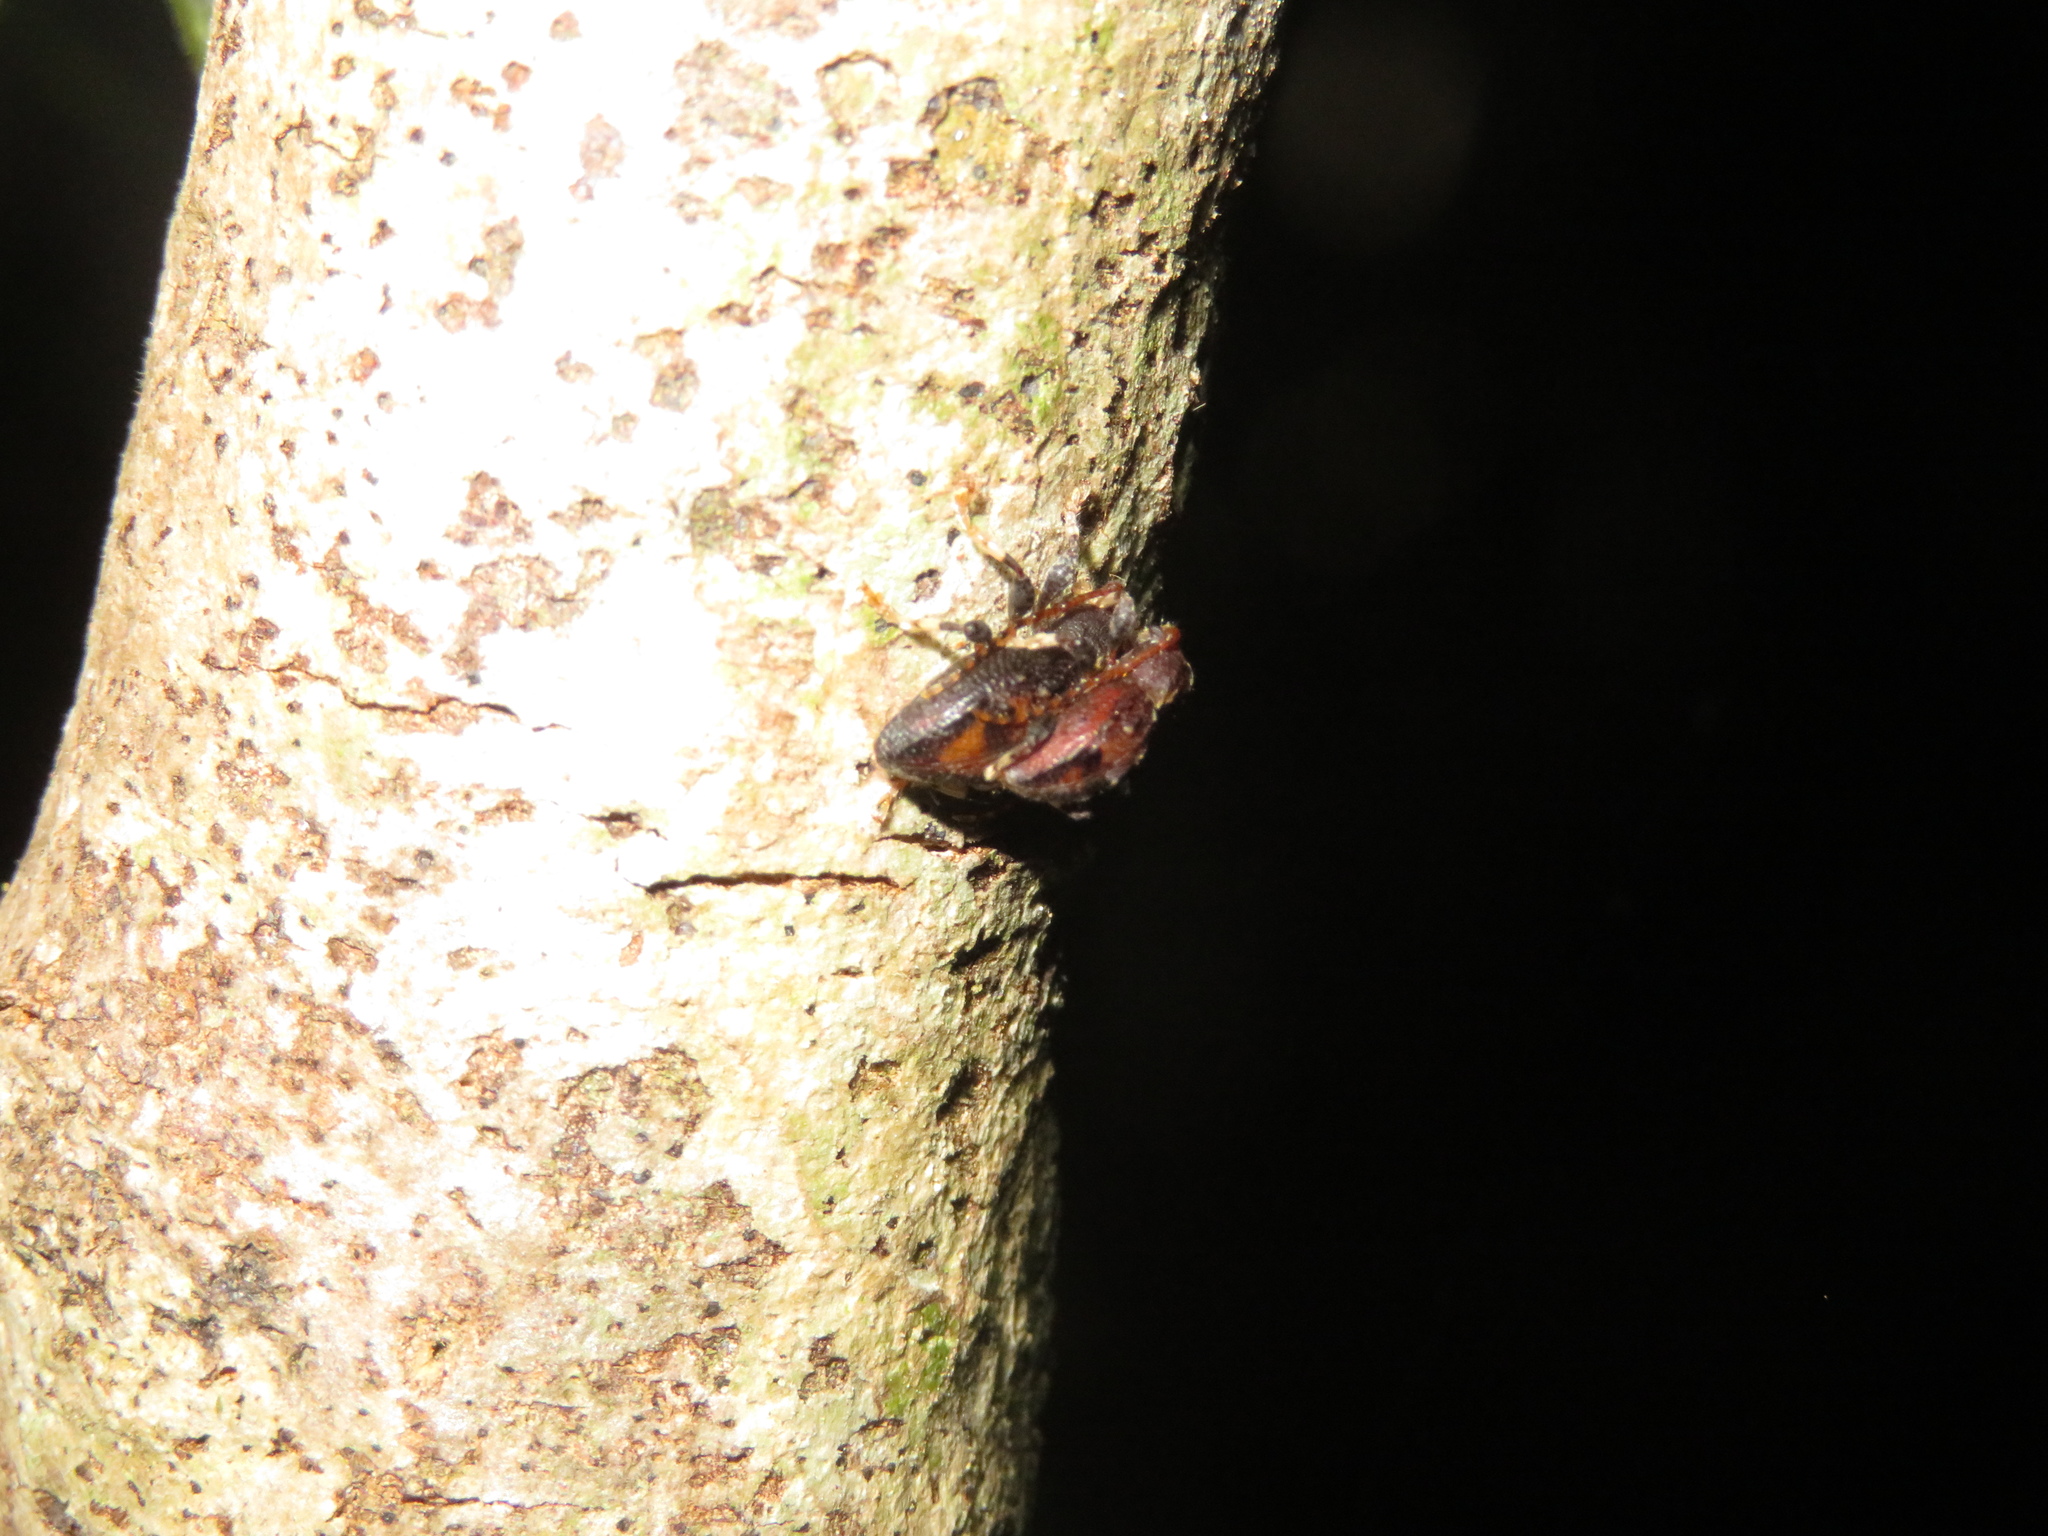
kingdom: Animalia
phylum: Arthropoda
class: Insecta
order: Coleoptera
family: Cerambycidae
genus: Nodulosoma
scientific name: Nodulosoma
